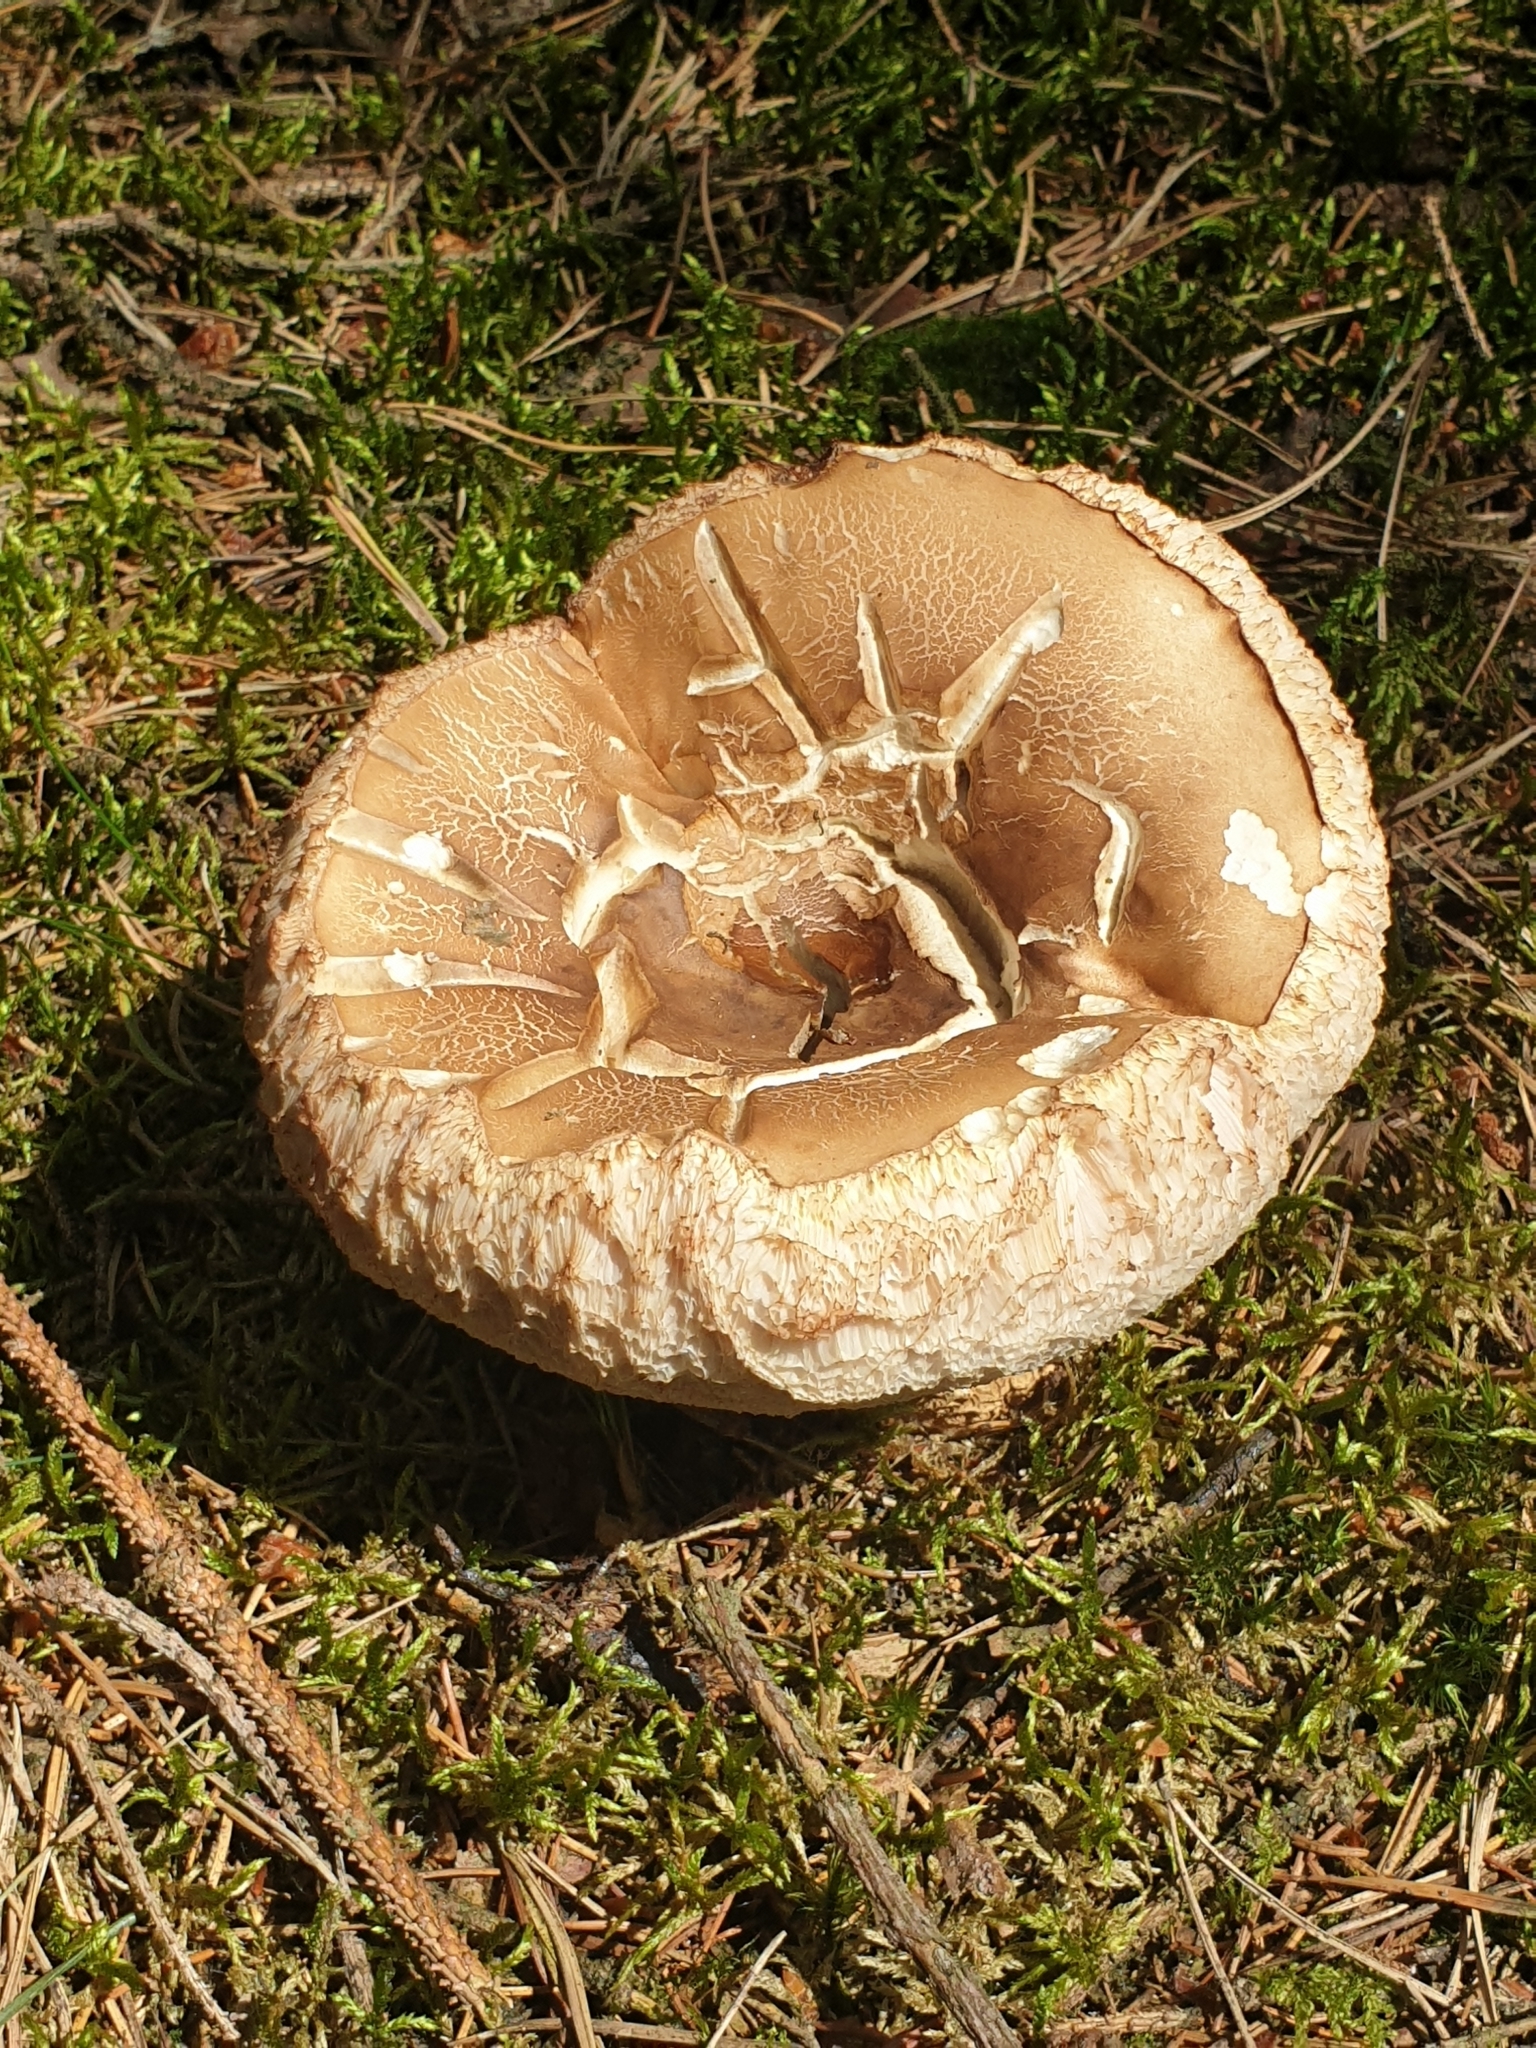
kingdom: Fungi
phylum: Basidiomycota
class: Agaricomycetes
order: Boletales
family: Boletaceae
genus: Tylopilus
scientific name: Tylopilus felleus
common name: Bitter bolete
